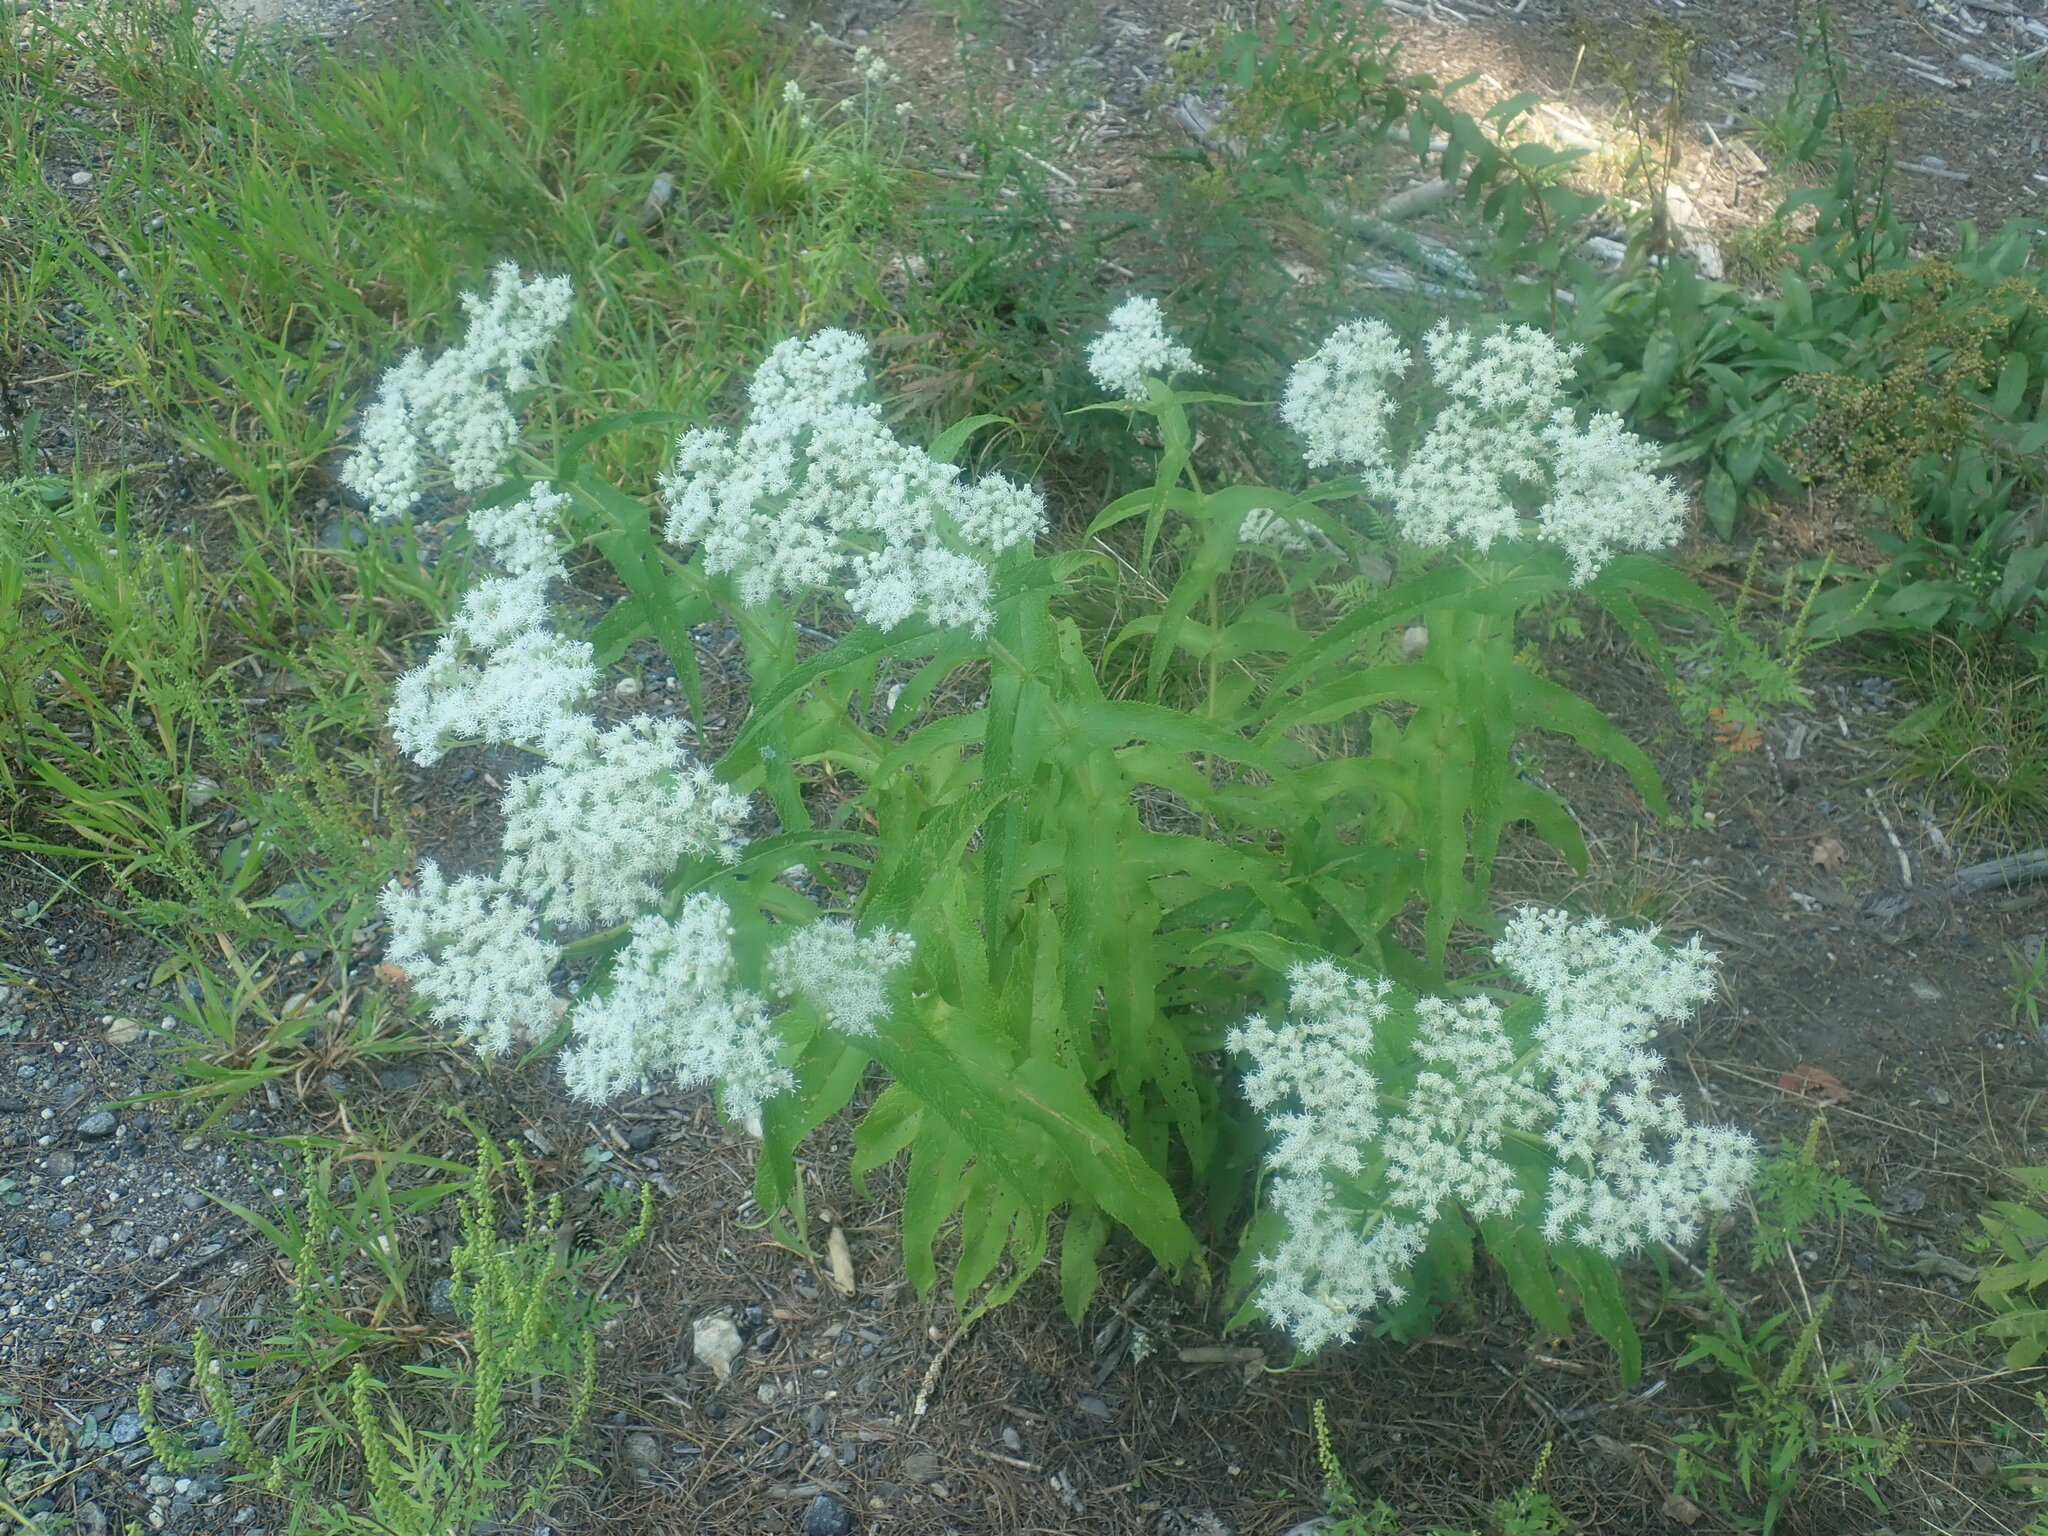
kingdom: Plantae
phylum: Tracheophyta
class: Magnoliopsida
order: Asterales
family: Asteraceae
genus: Eupatorium
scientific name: Eupatorium perfoliatum
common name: Boneset
